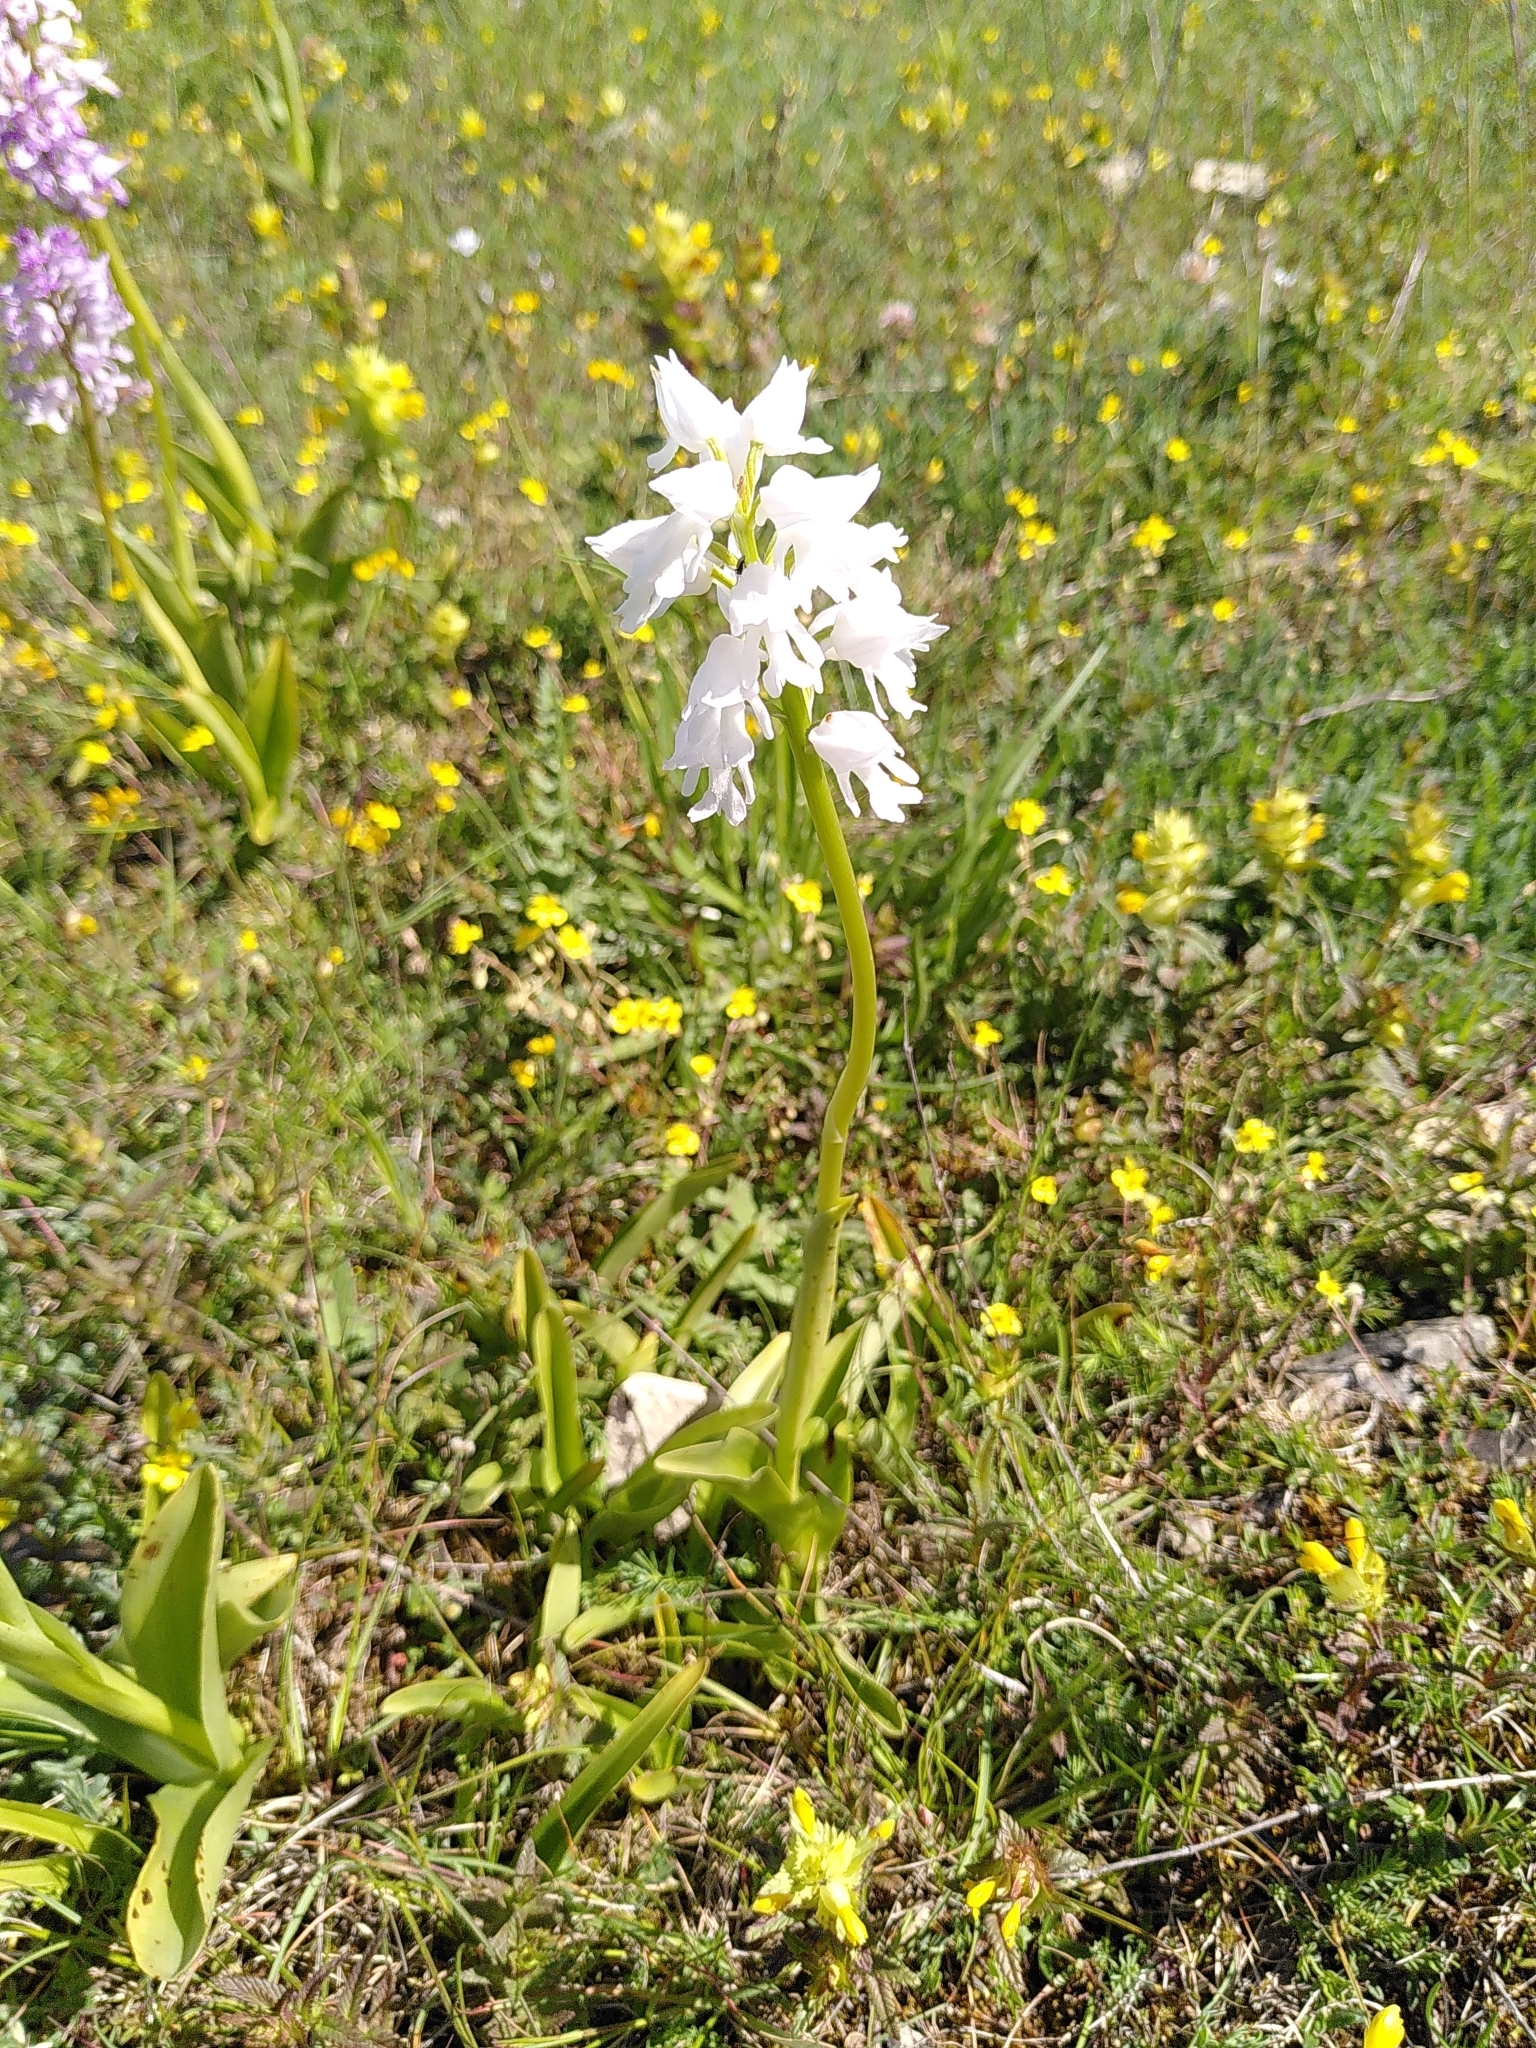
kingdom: Plantae
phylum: Tracheophyta
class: Liliopsida
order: Asparagales
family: Orchidaceae
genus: Orchis
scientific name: Orchis militaris
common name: Military orchid
